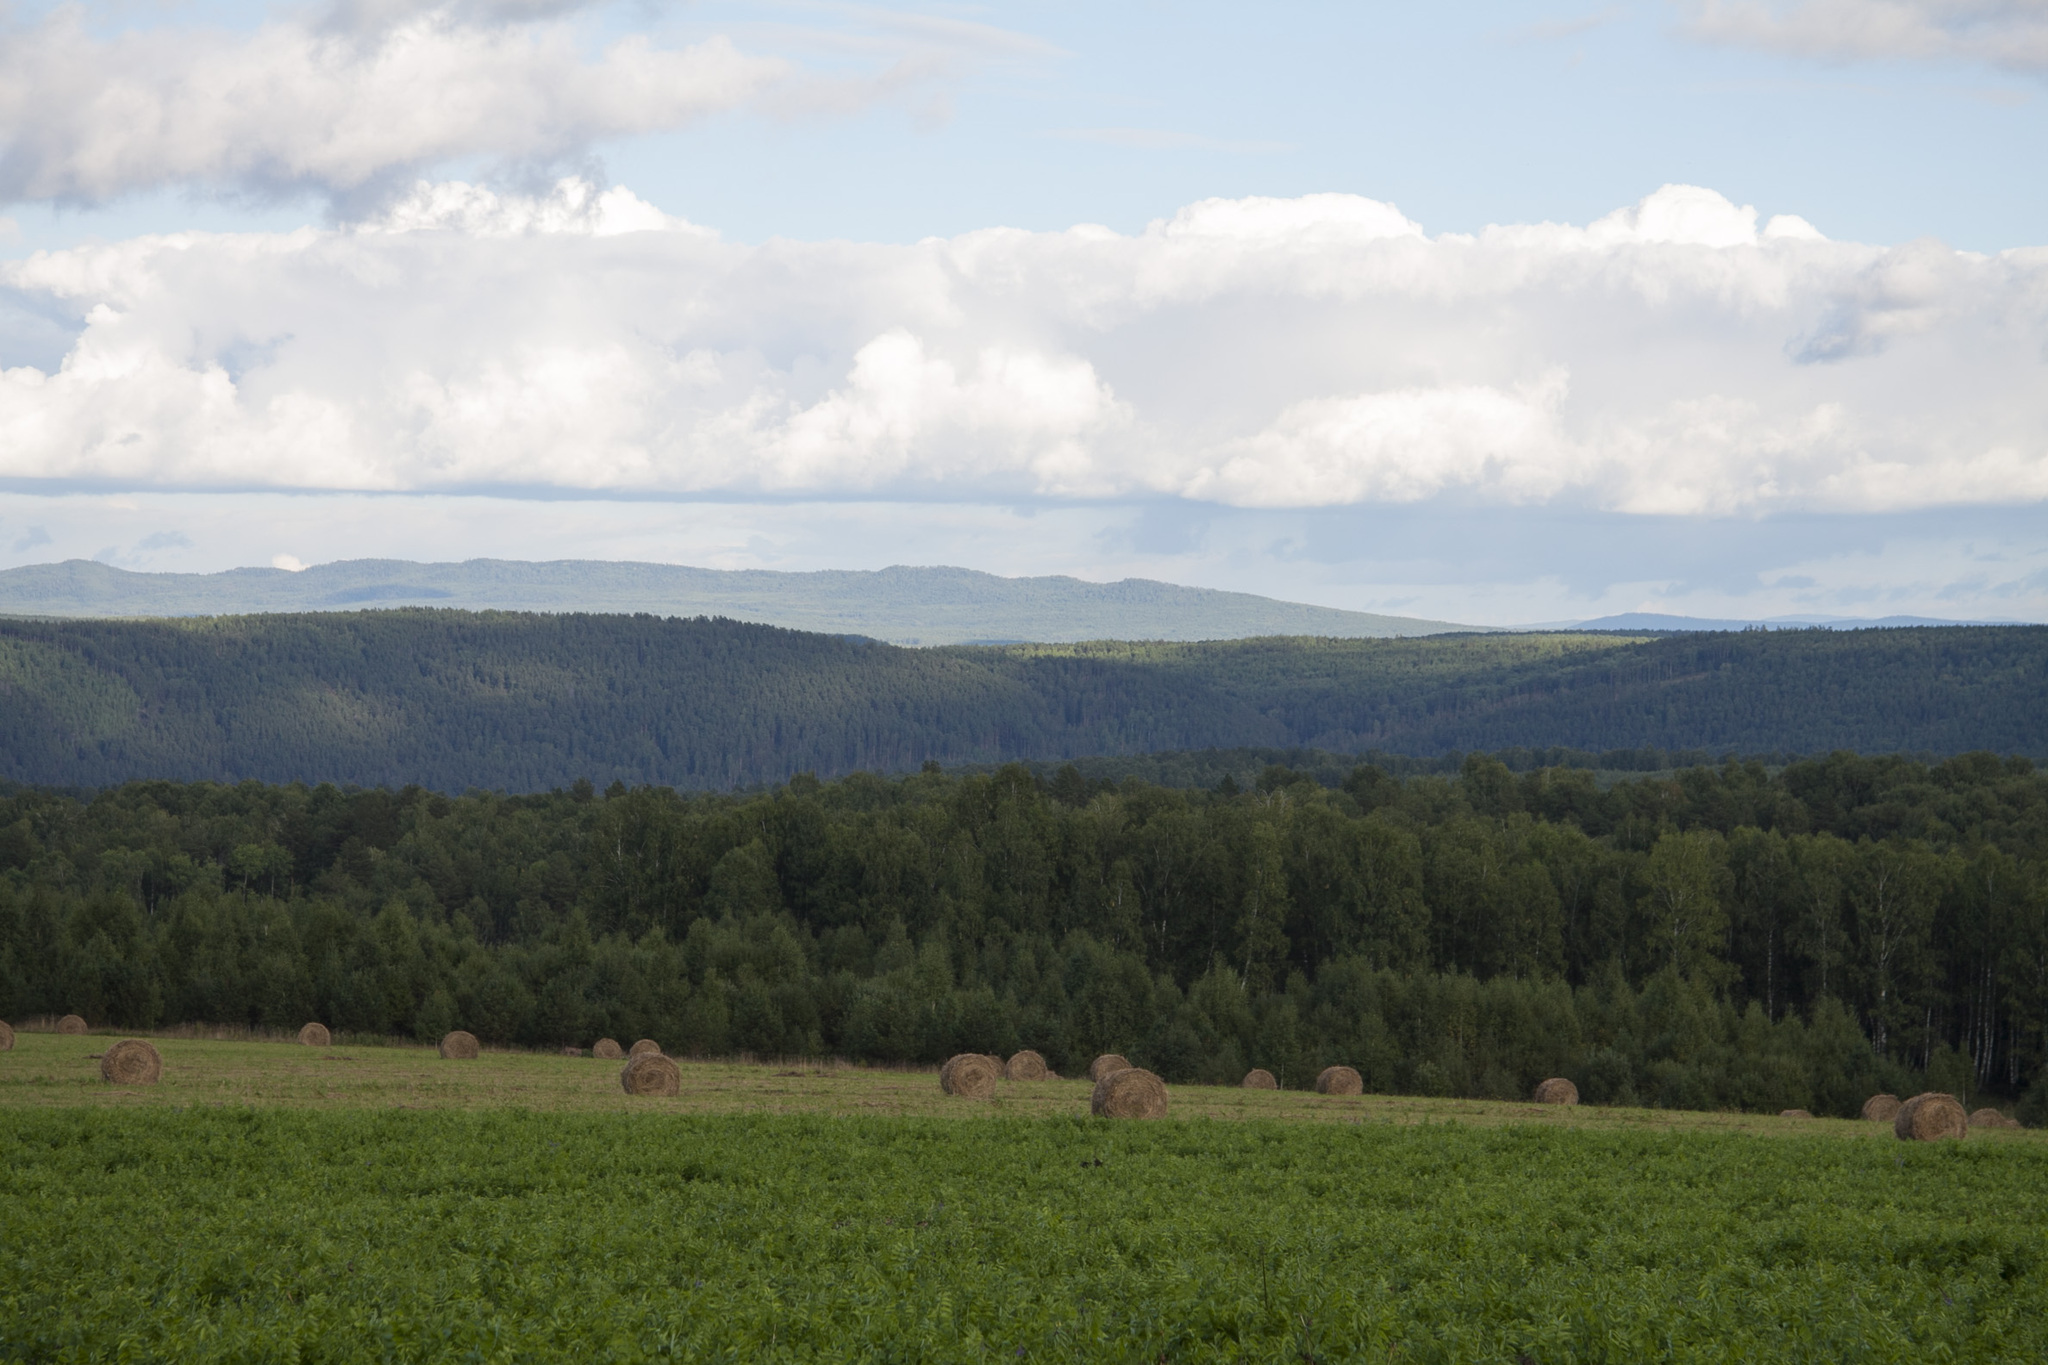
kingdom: Plantae
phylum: Tracheophyta
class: Pinopsida
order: Pinales
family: Pinaceae
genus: Pinus
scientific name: Pinus sylvestris
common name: Scots pine
